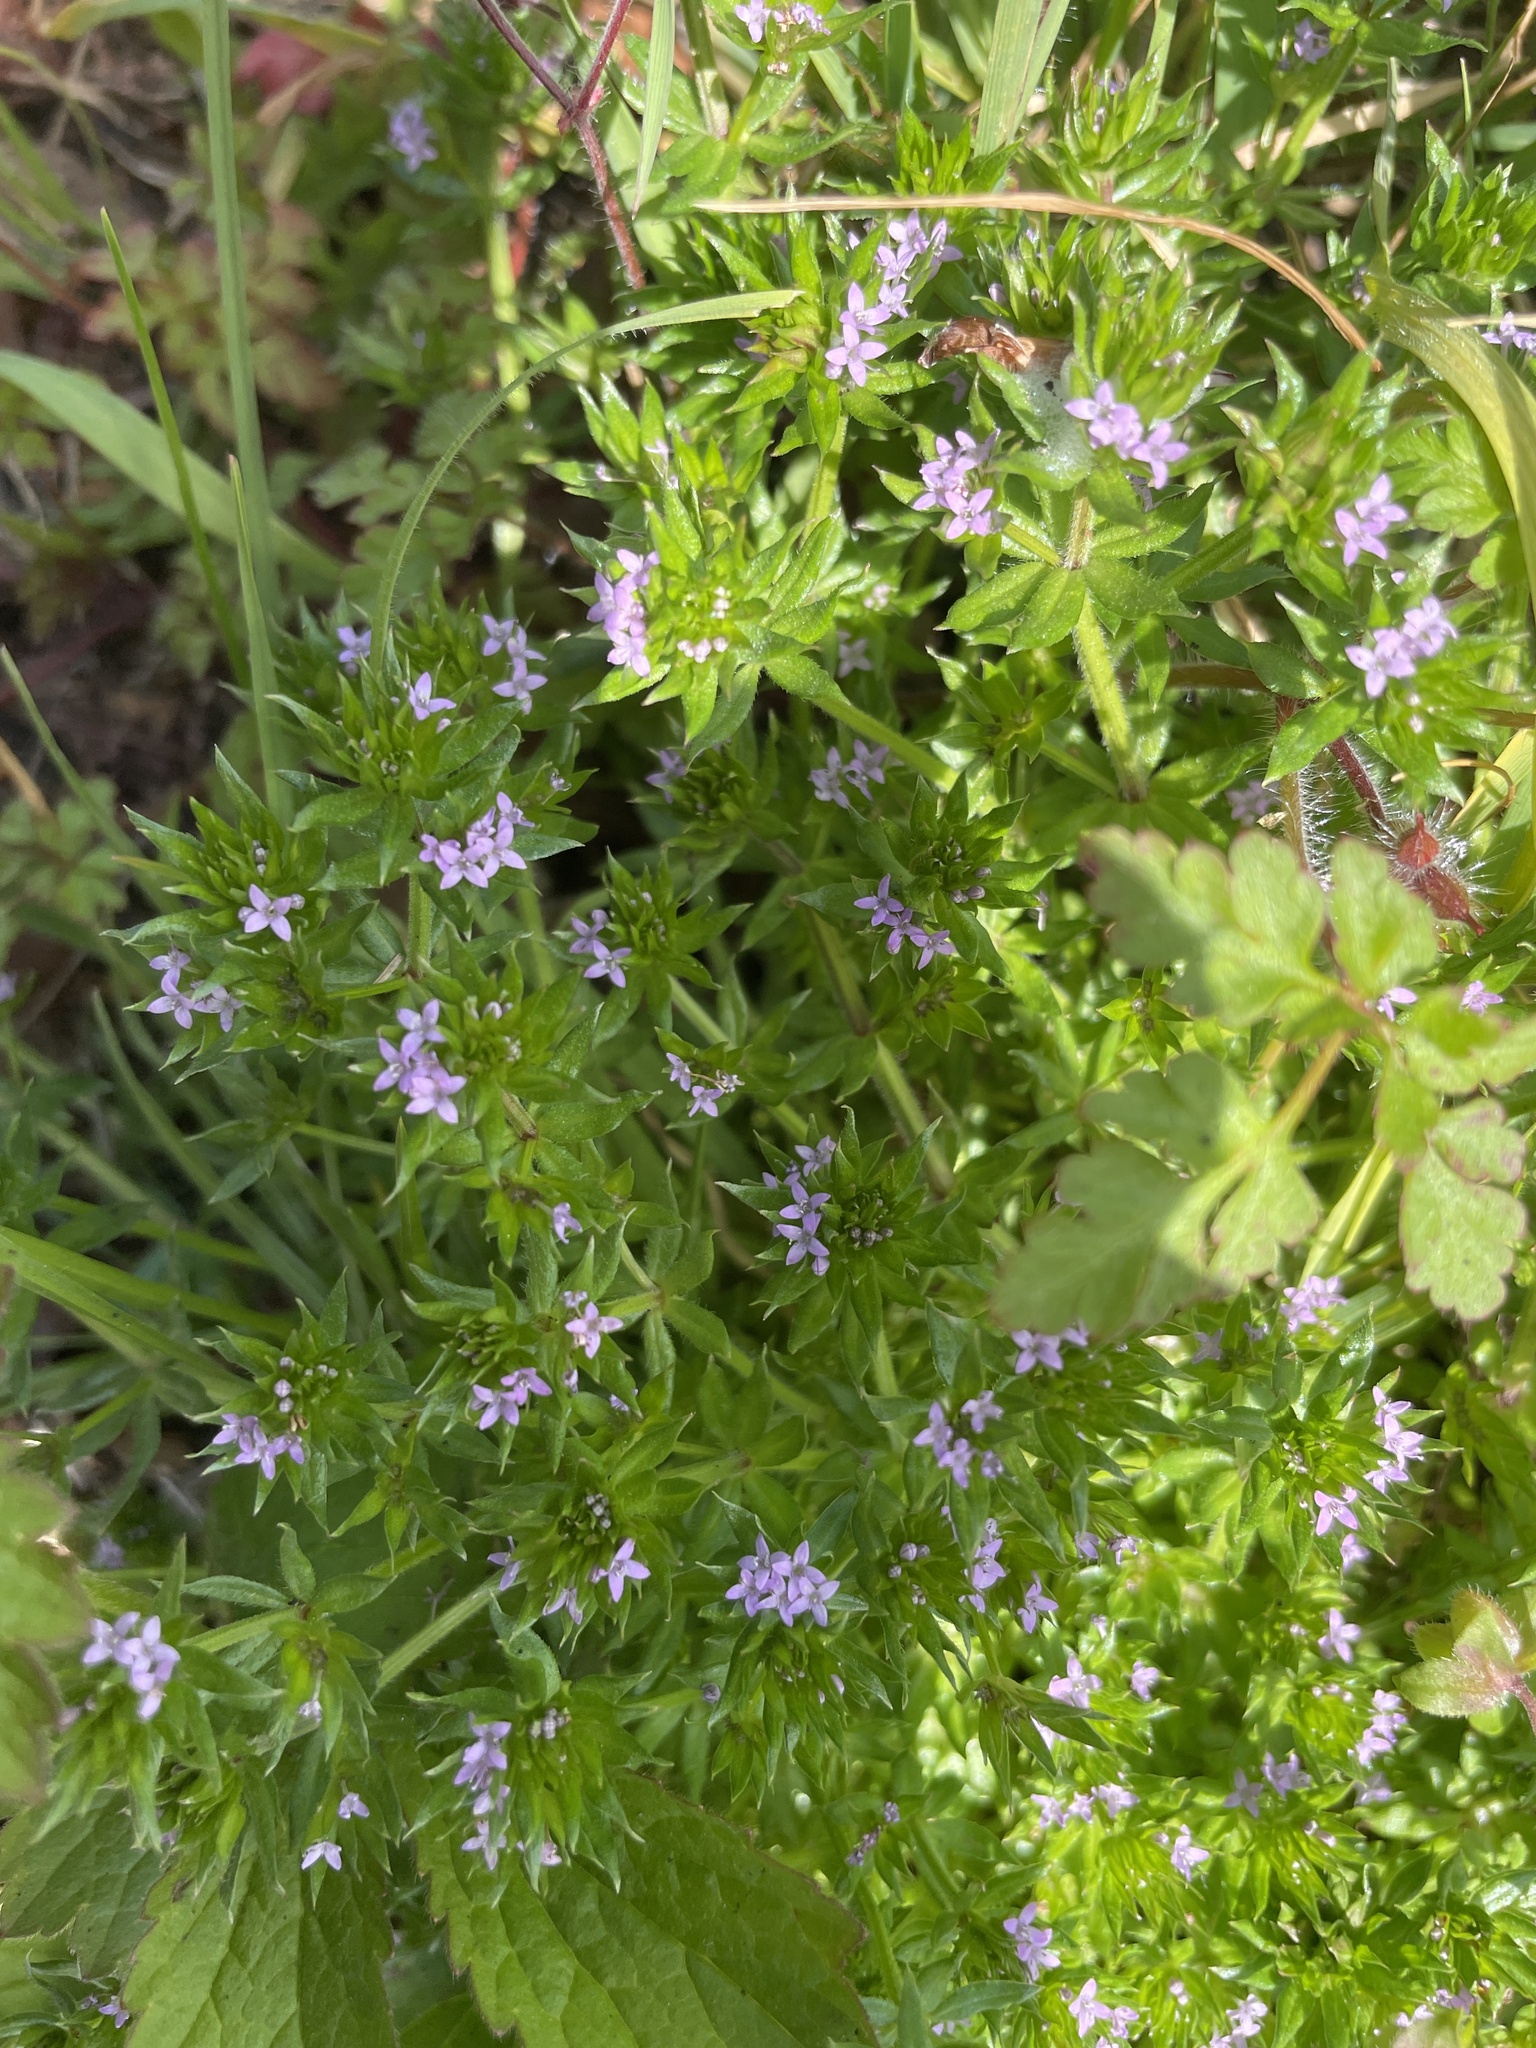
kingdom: Plantae
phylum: Tracheophyta
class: Magnoliopsida
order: Gentianales
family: Rubiaceae
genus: Sherardia
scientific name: Sherardia arvensis
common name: Field madder
